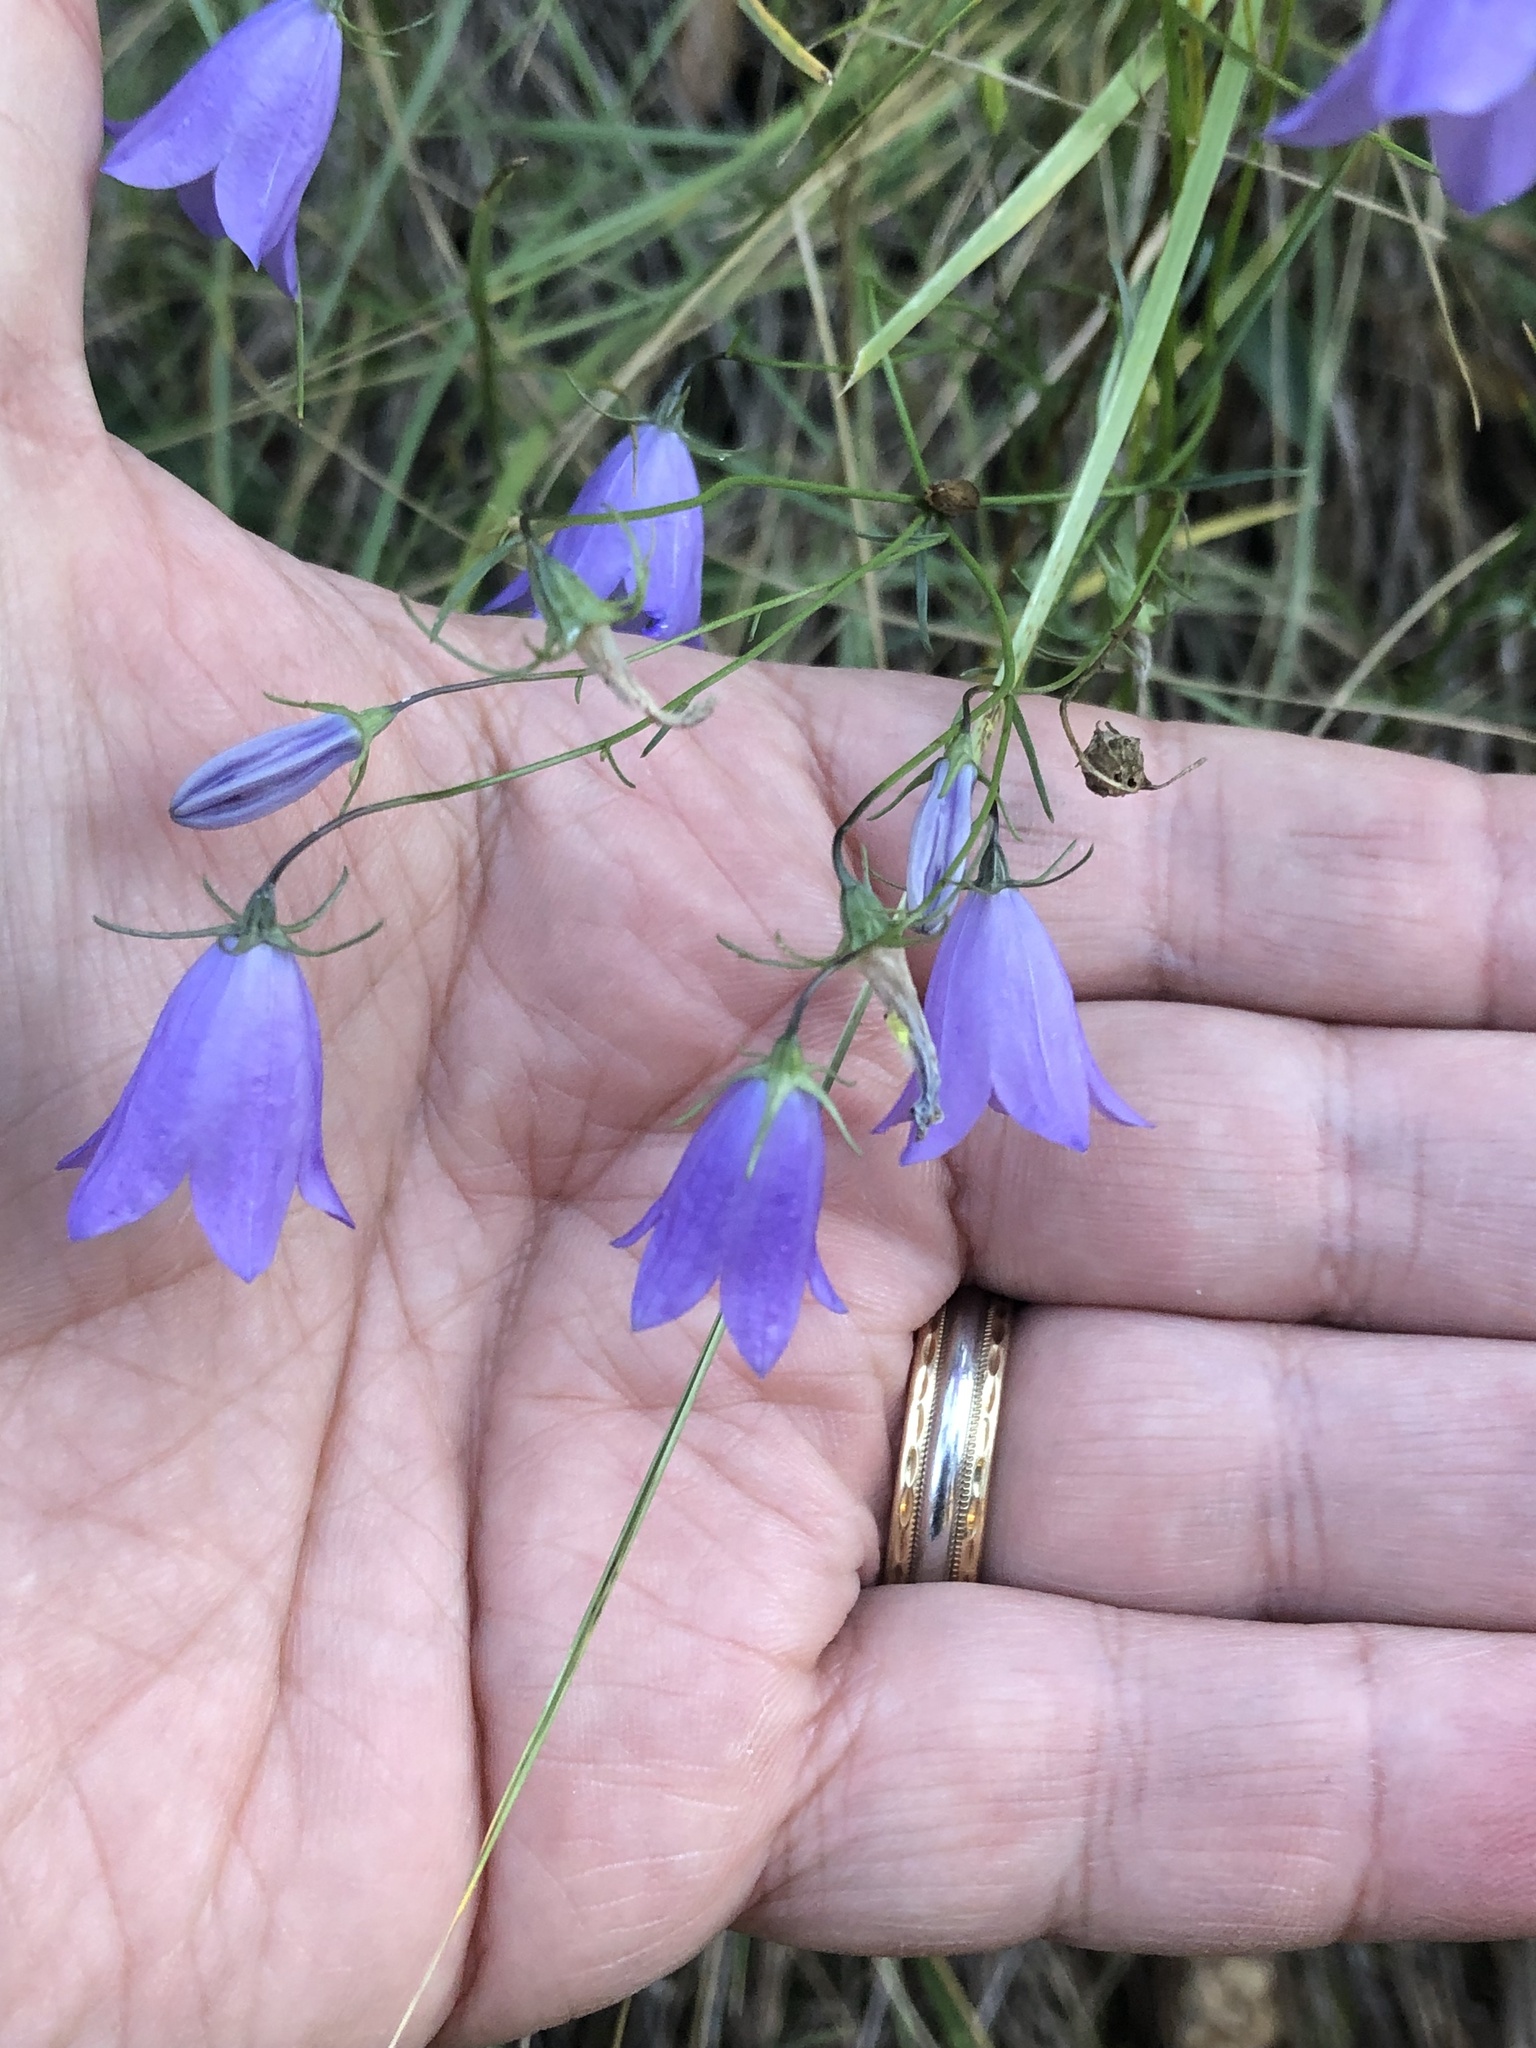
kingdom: Plantae
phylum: Tracheophyta
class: Magnoliopsida
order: Asterales
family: Campanulaceae
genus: Campanula
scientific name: Campanula petiolata
